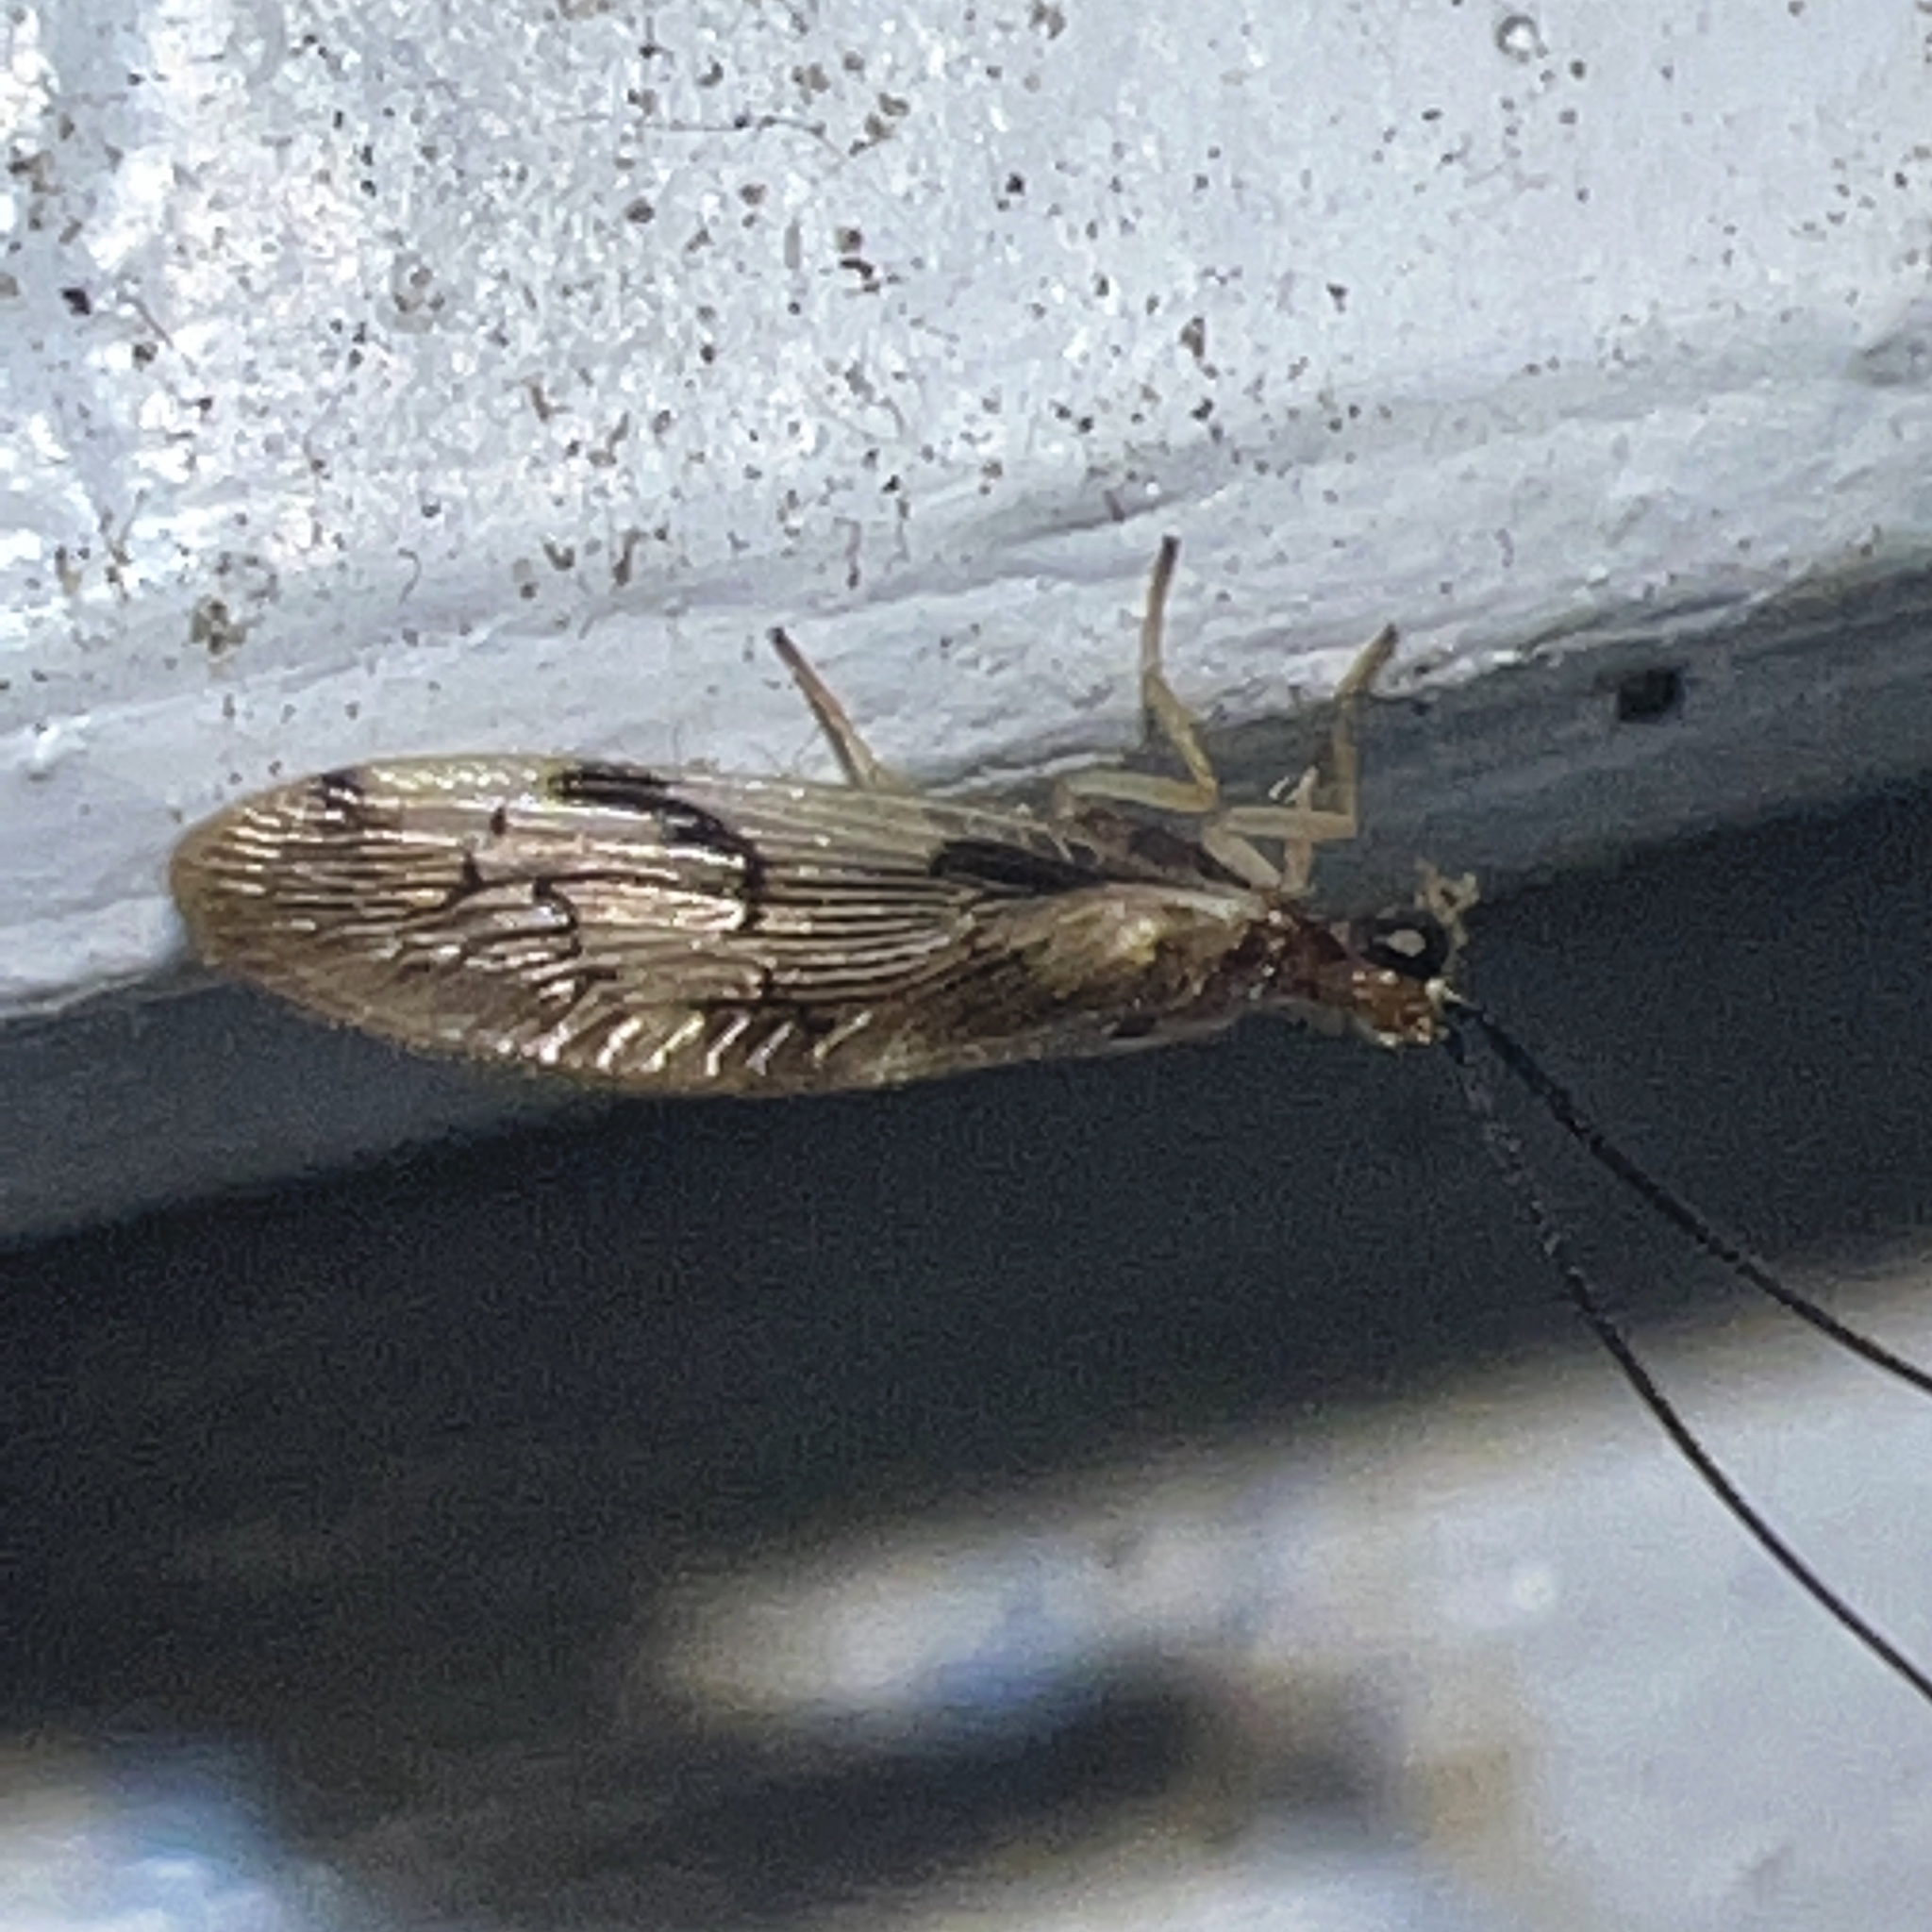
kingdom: Animalia
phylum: Arthropoda
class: Insecta
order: Neuroptera
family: Sisyridae
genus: Climacia
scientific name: Climacia areolaris
